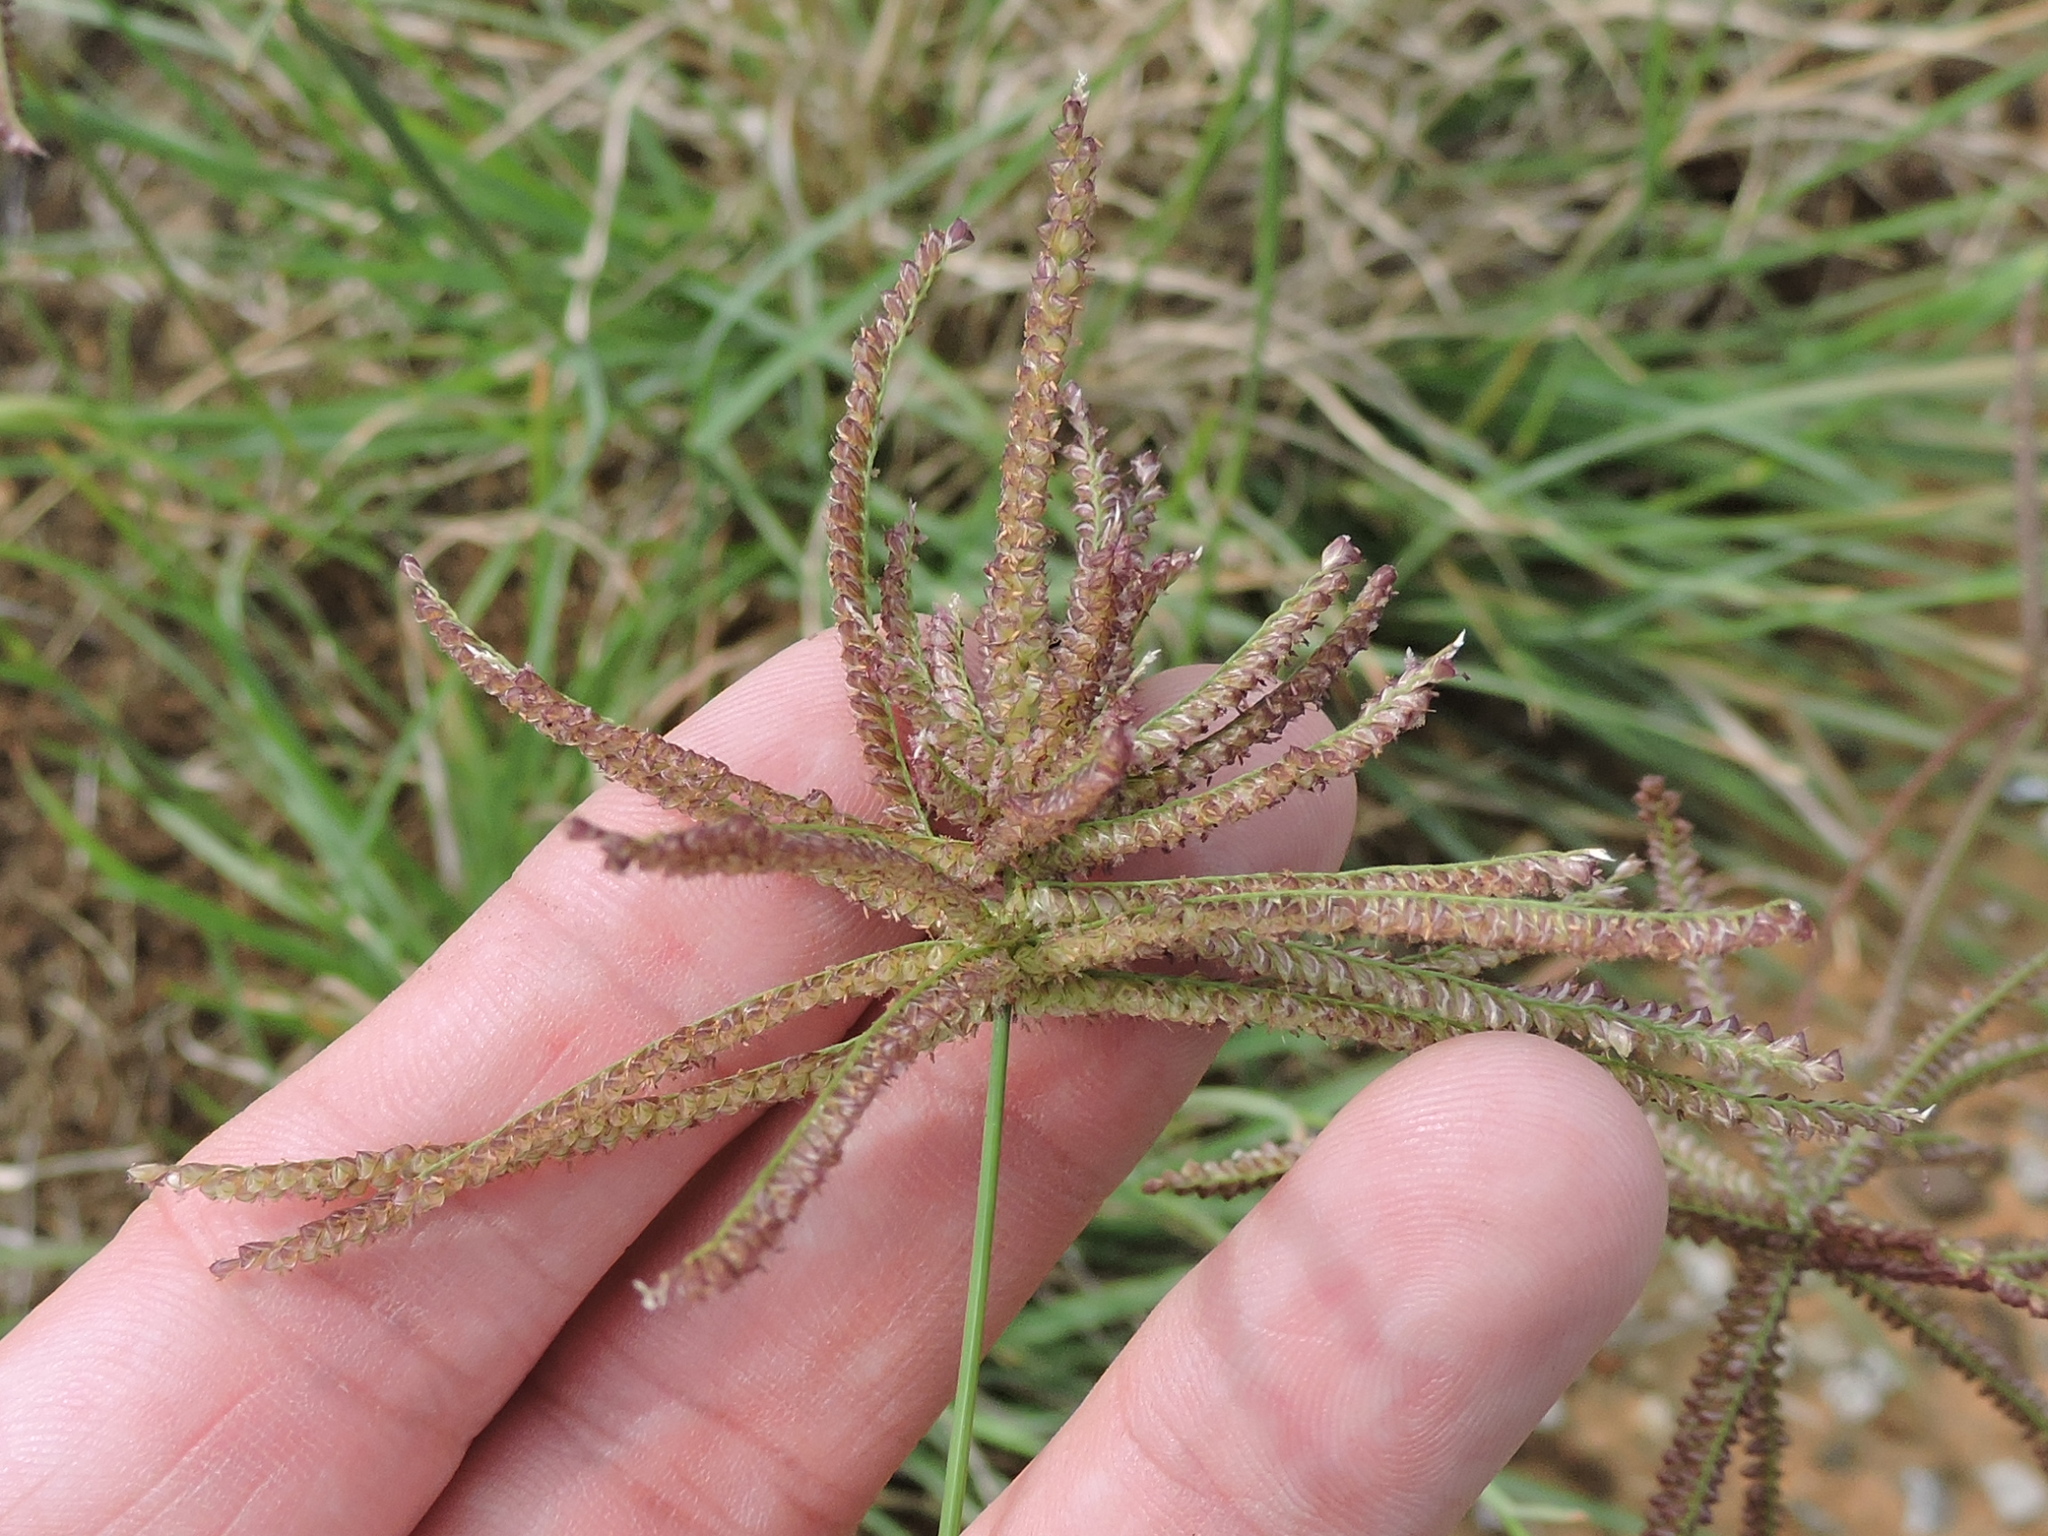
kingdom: Plantae
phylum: Tracheophyta
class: Liliopsida
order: Poales
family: Poaceae
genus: Chloris
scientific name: Chloris cucullata
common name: Hooded windmill grass
